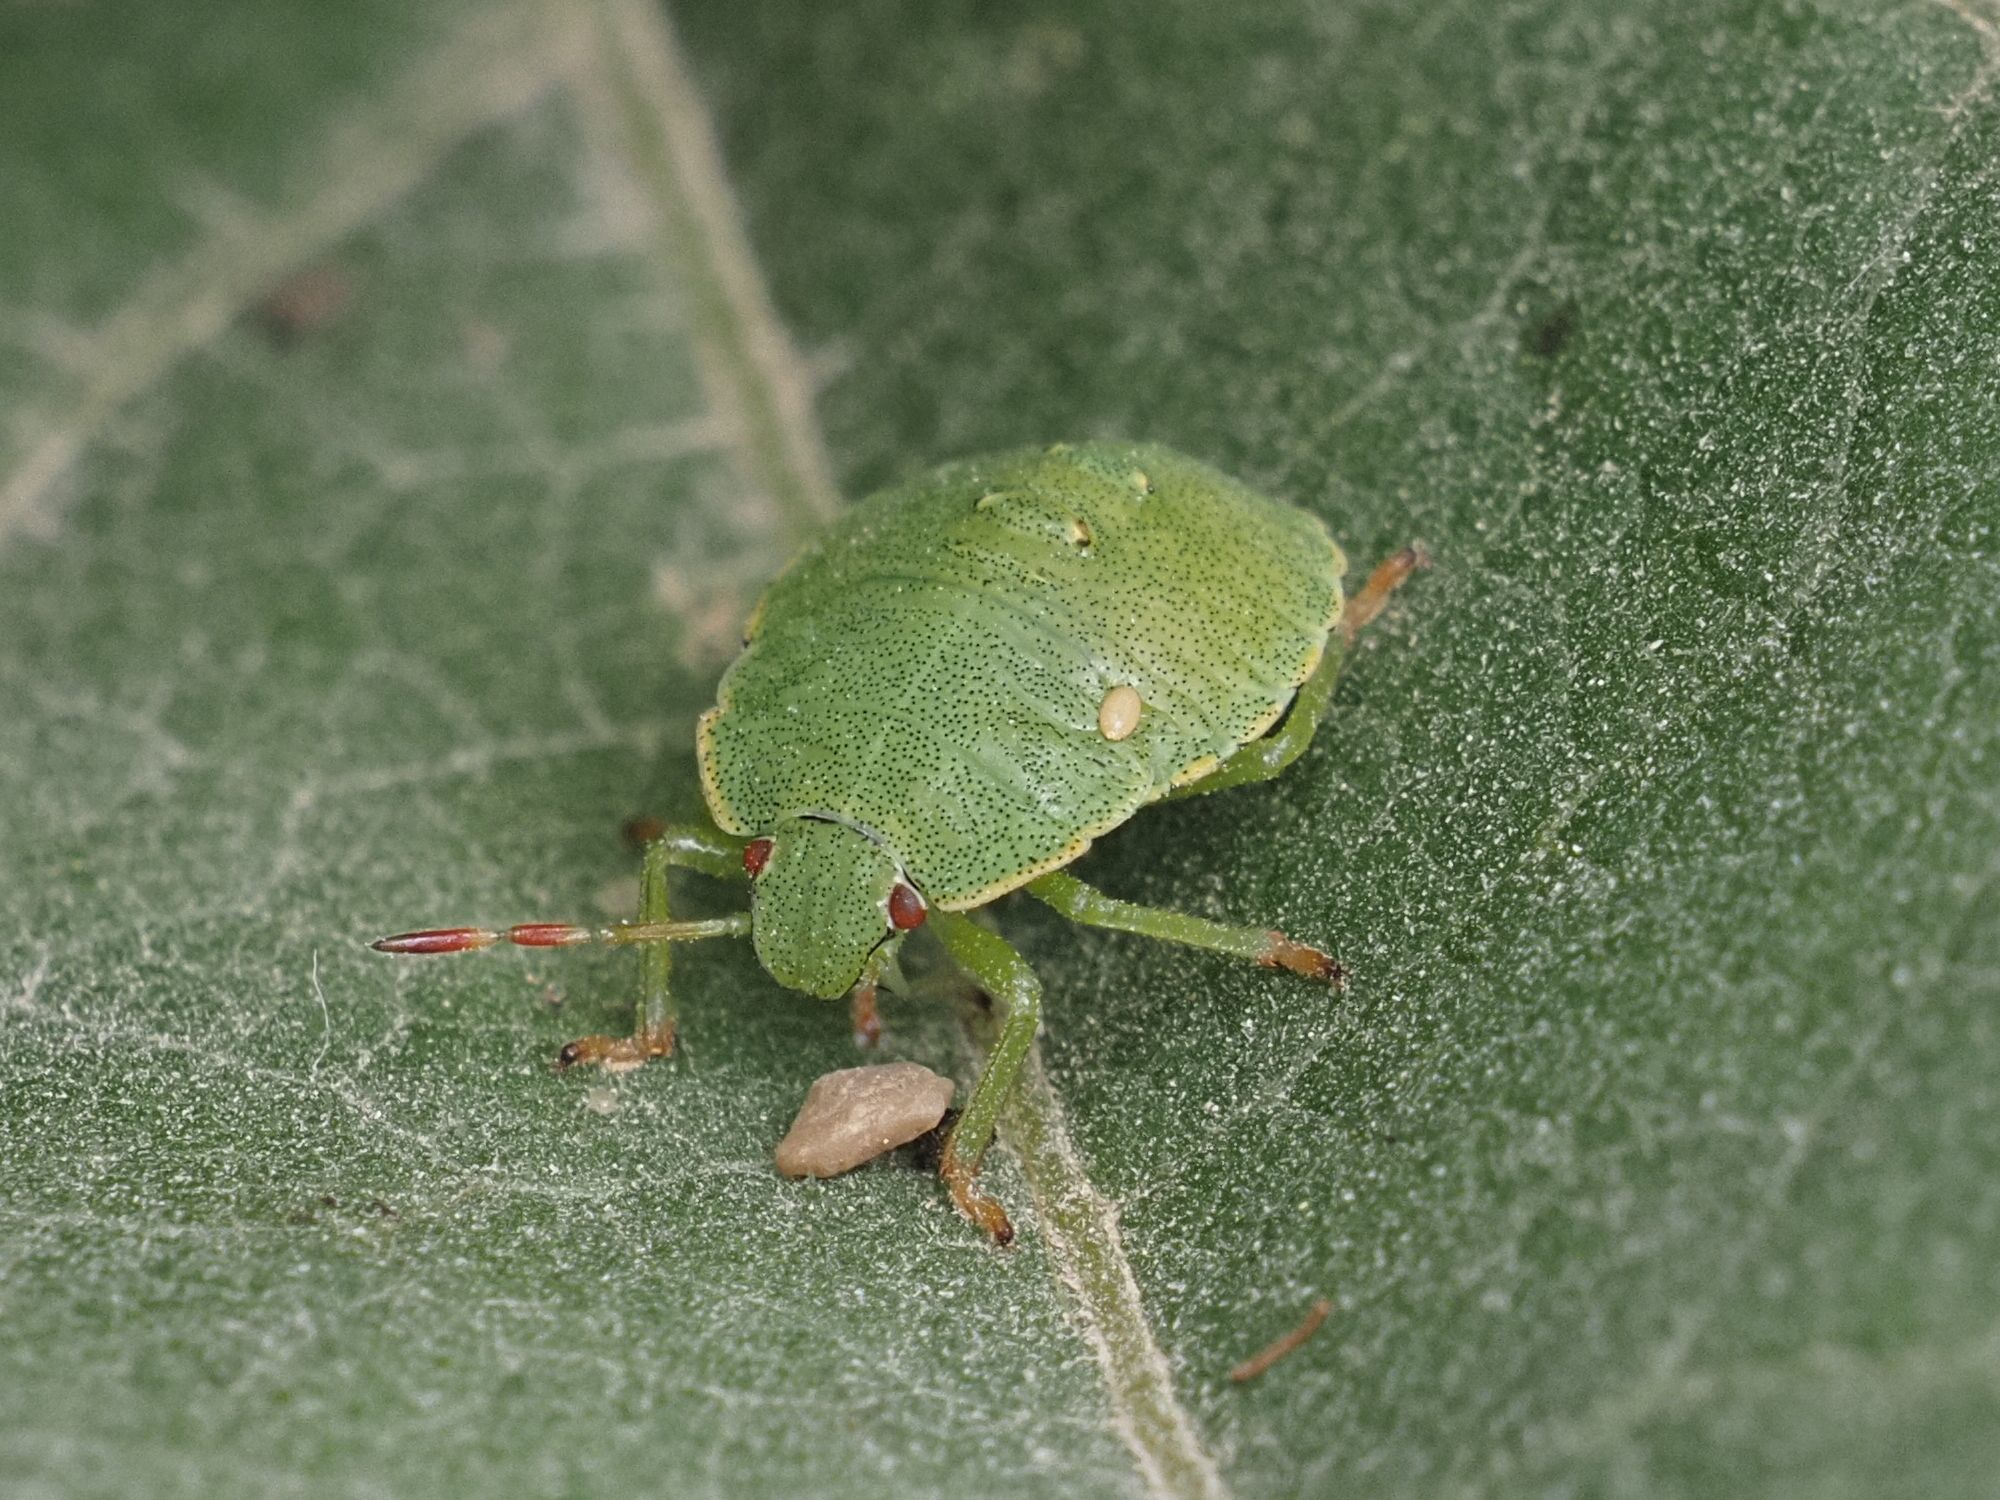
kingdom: Animalia
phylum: Arthropoda
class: Insecta
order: Hemiptera
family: Pentatomidae
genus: Palomena
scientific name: Palomena prasina
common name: Green shieldbug
